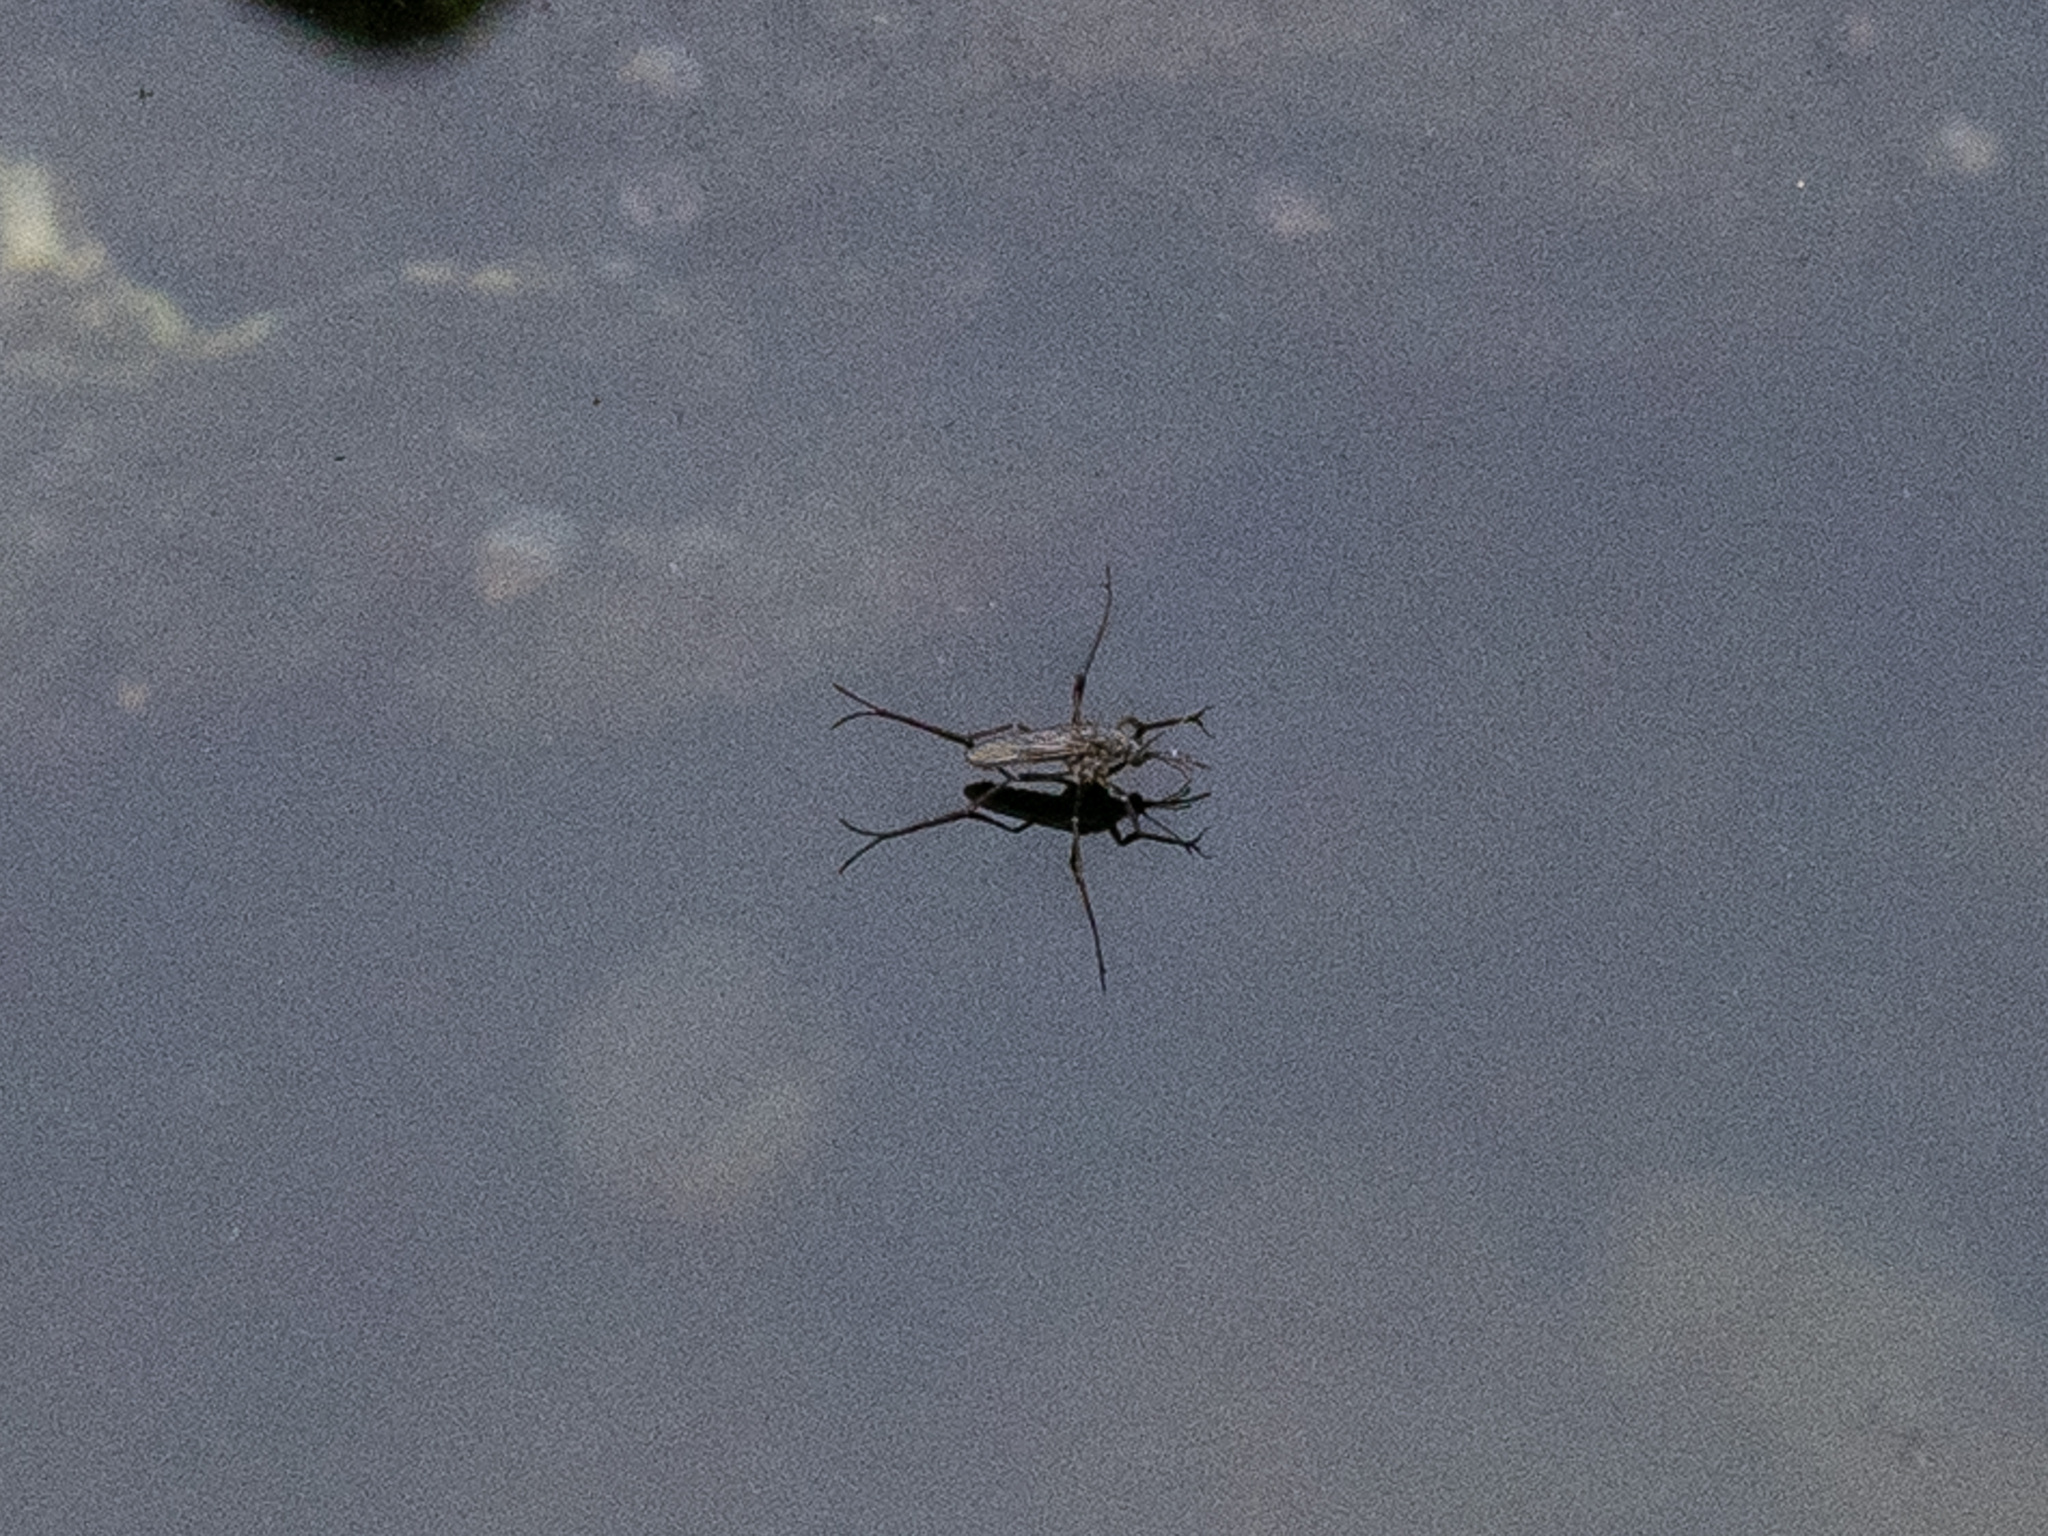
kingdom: Animalia
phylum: Arthropoda
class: Insecta
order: Diptera
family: Culicidae
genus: Opifex
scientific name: Opifex fuscus
